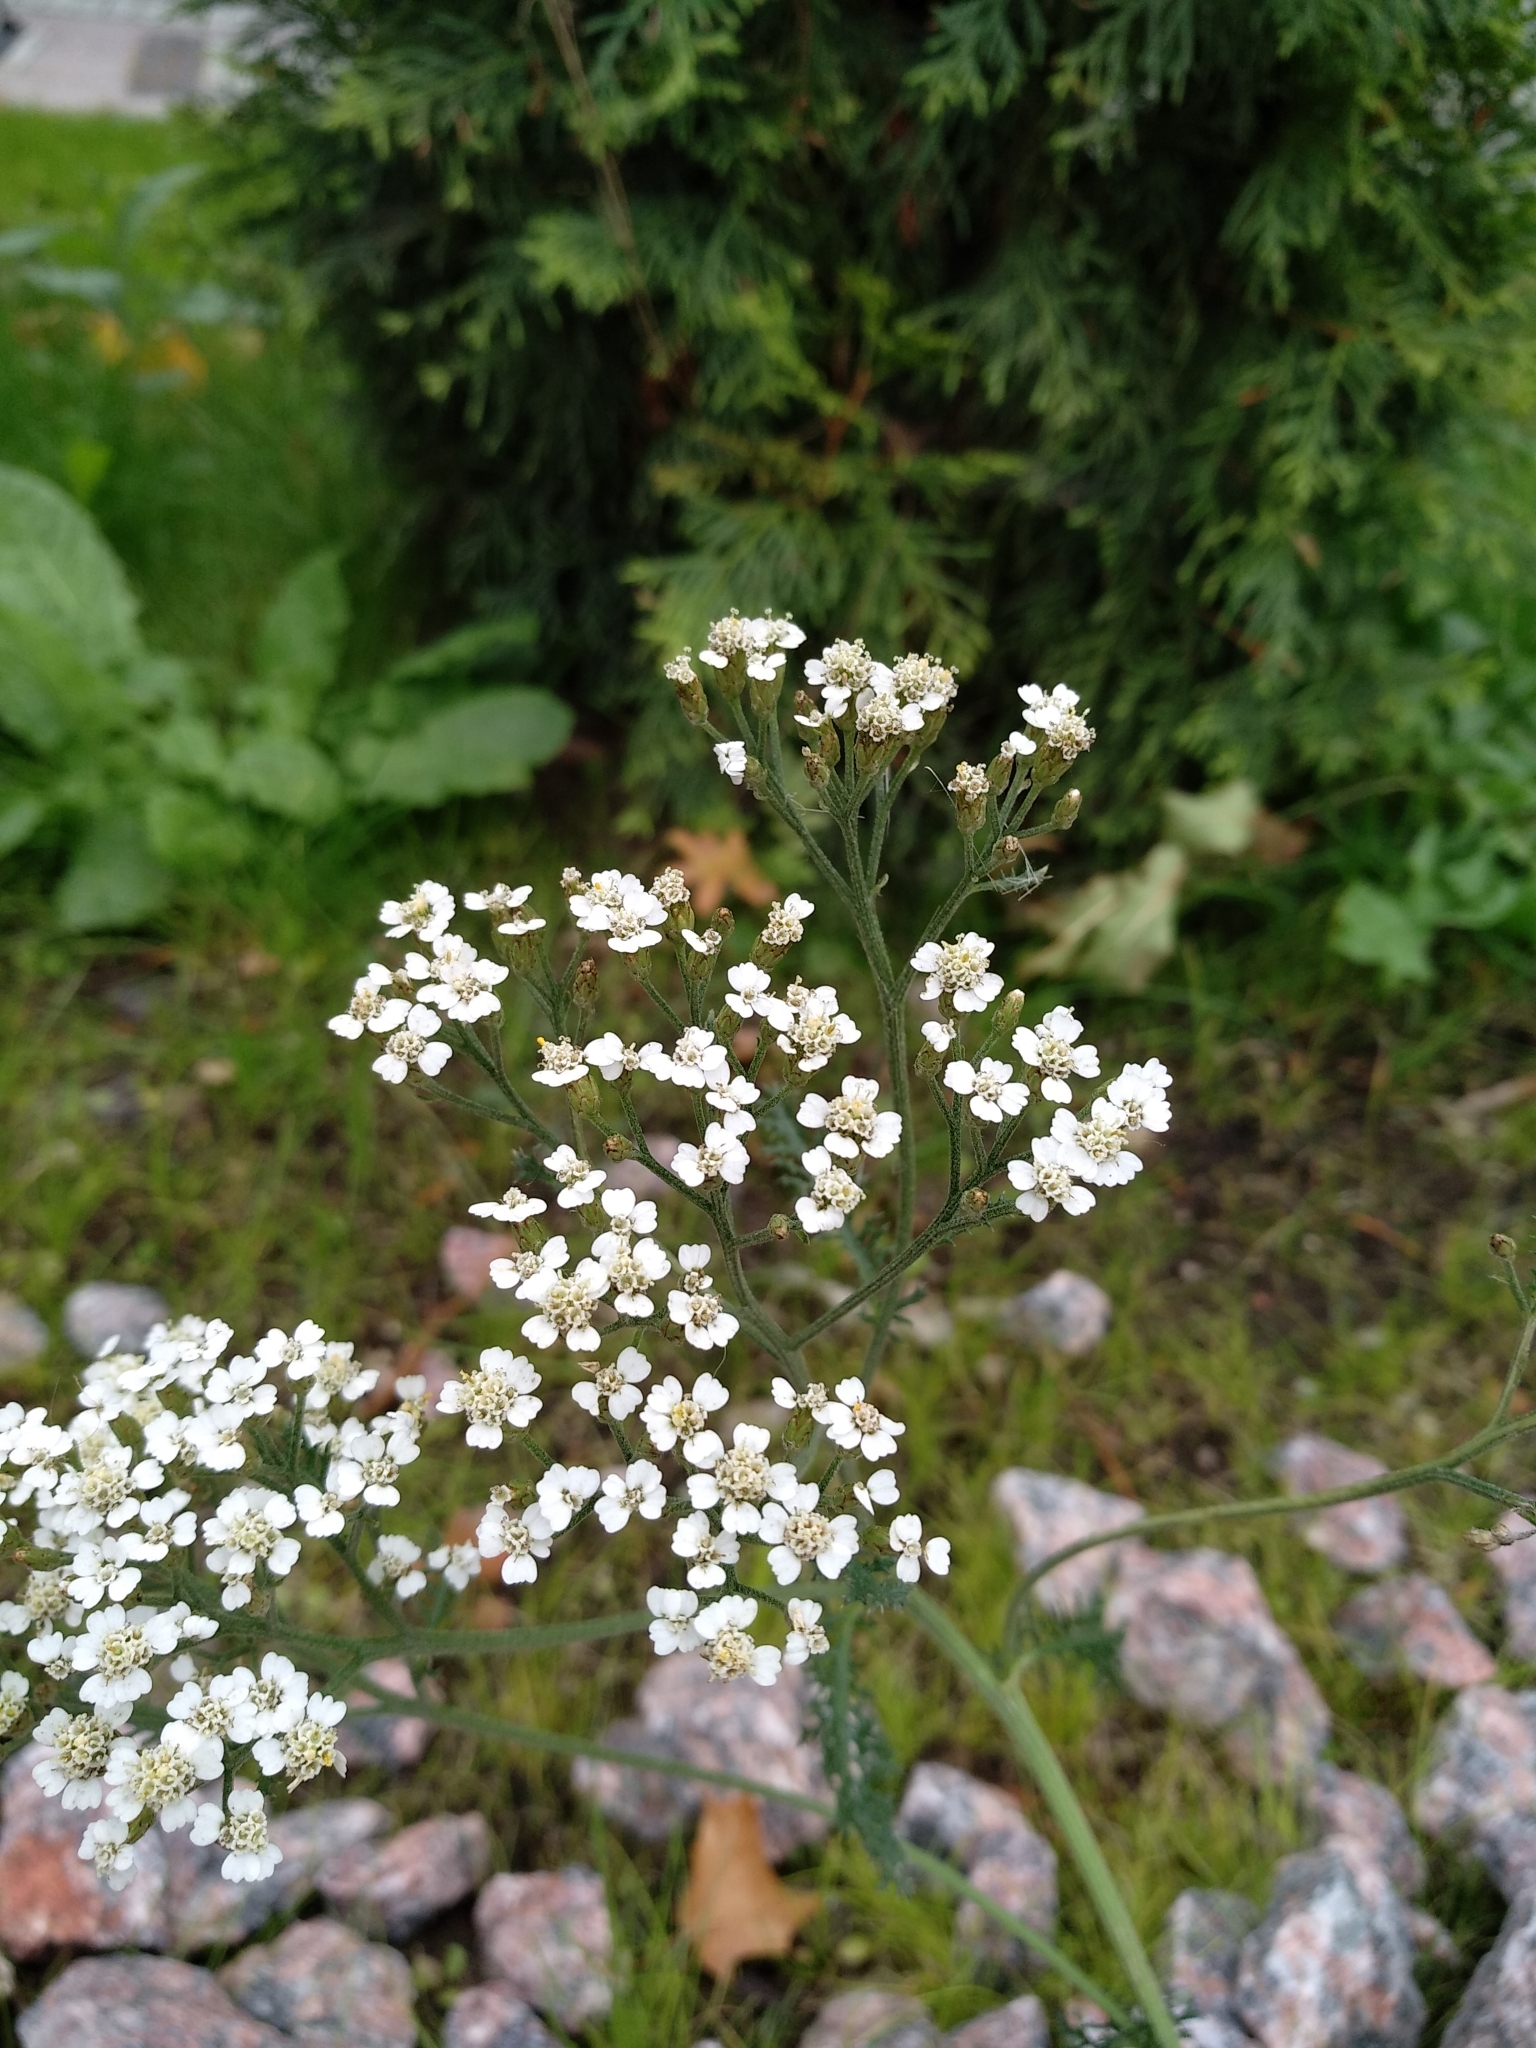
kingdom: Plantae
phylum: Tracheophyta
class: Magnoliopsida
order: Asterales
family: Asteraceae
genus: Achillea
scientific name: Achillea millefolium
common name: Yarrow
